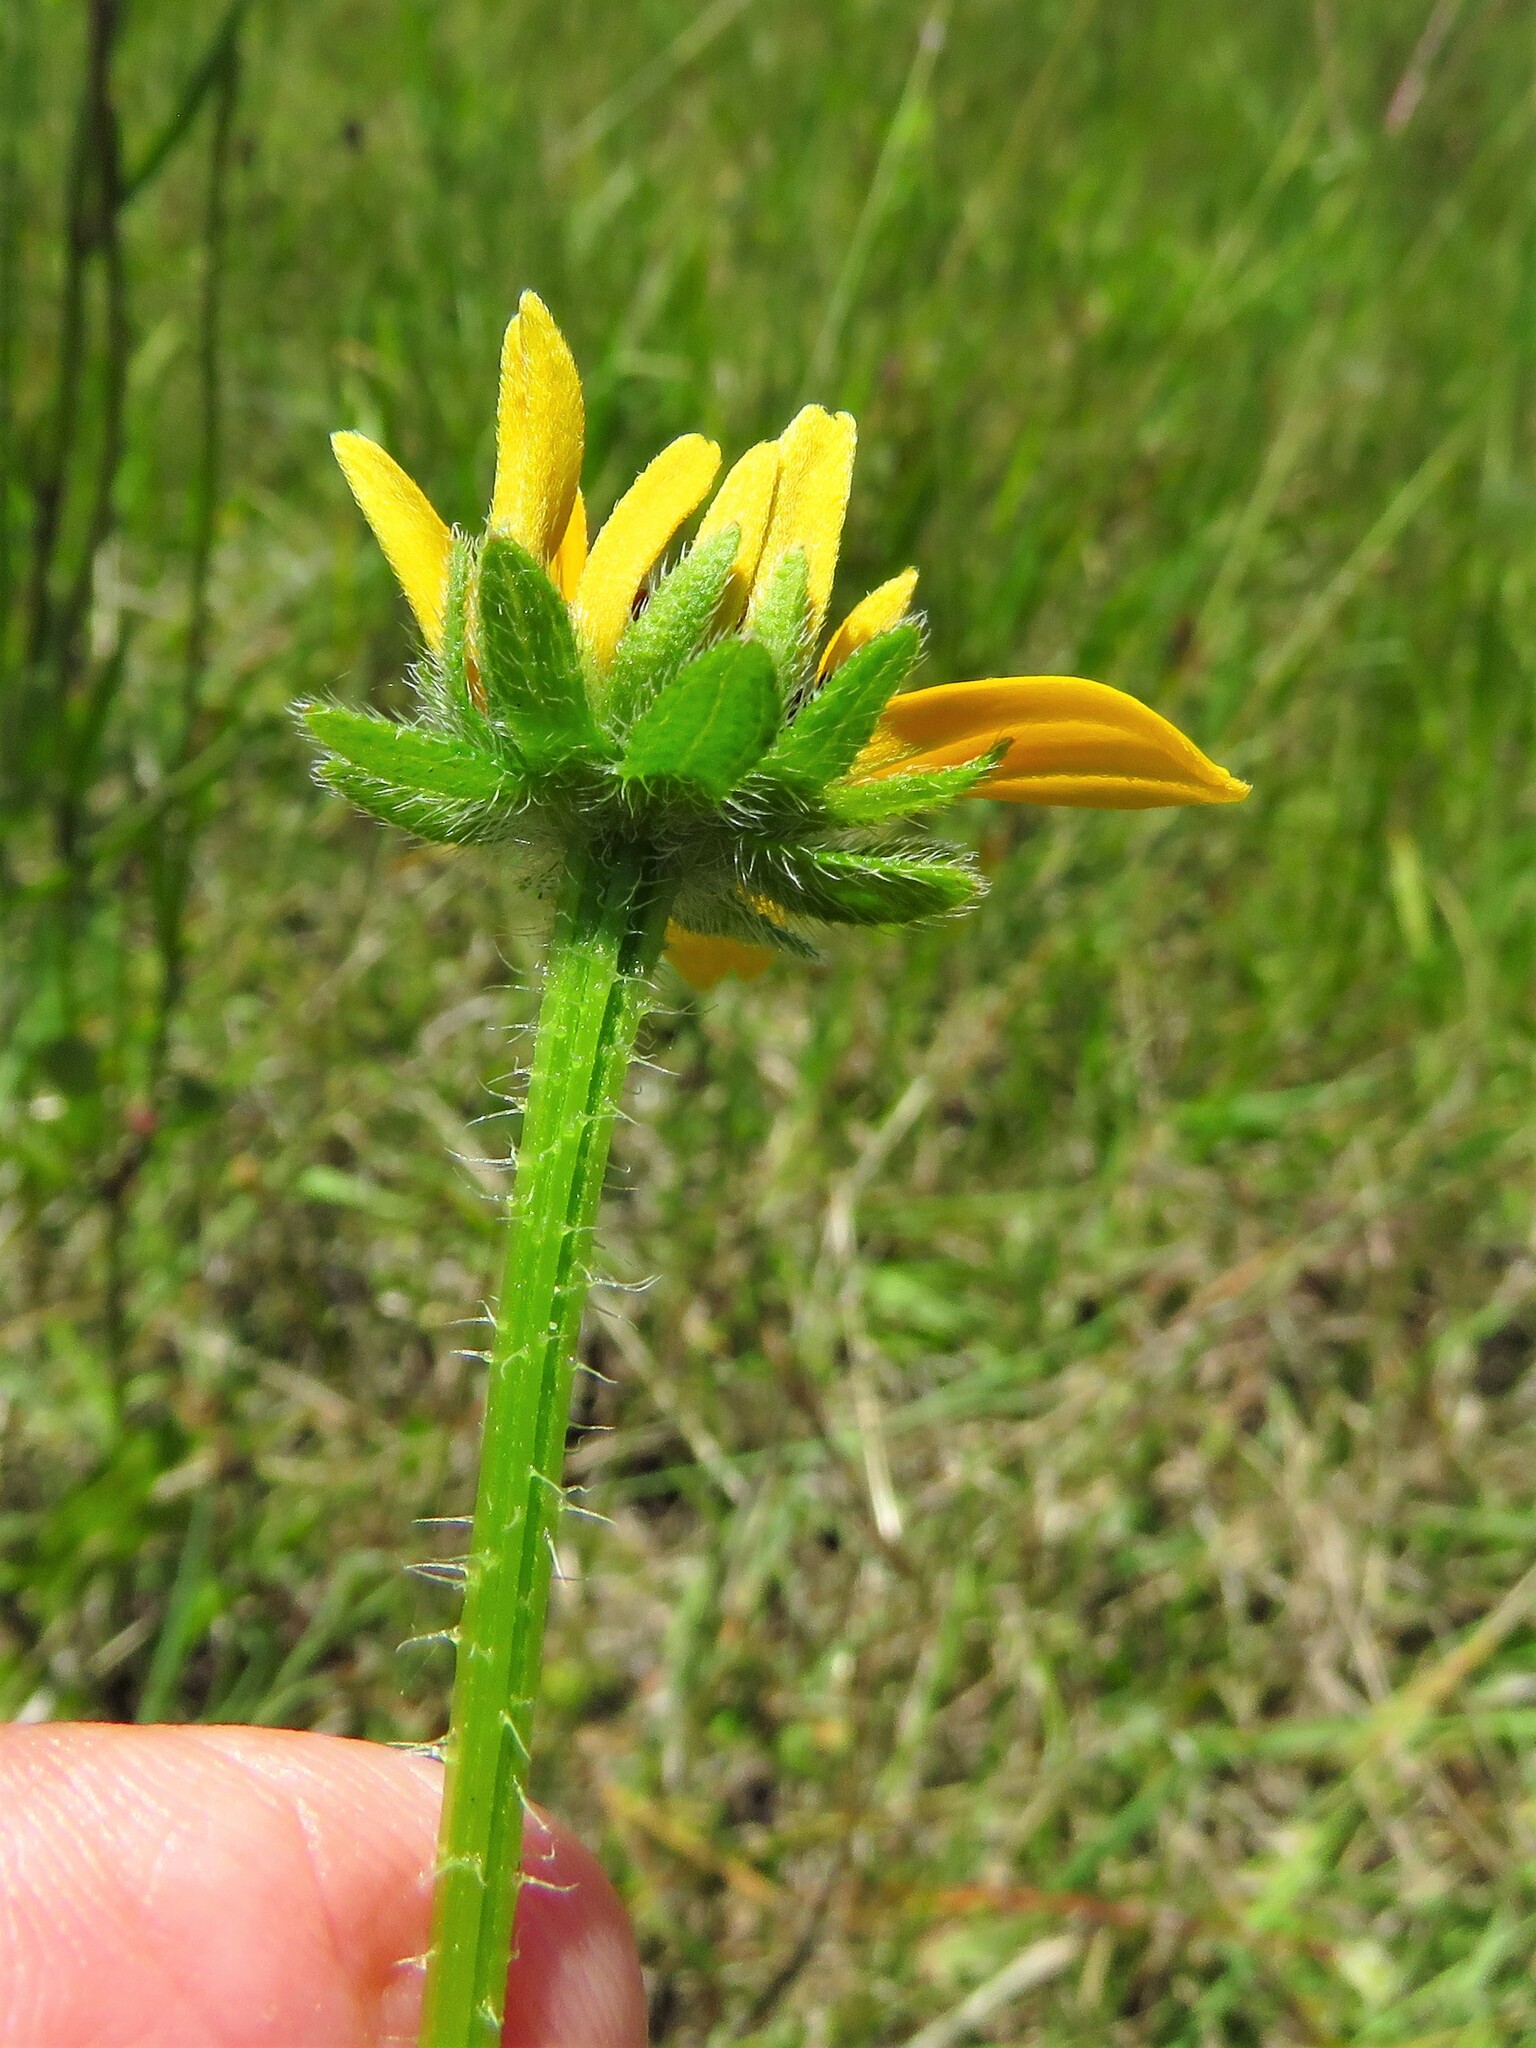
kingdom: Plantae
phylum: Tracheophyta
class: Magnoliopsida
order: Asterales
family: Asteraceae
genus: Rudbeckia
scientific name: Rudbeckia hirta
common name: Black-eyed-susan
